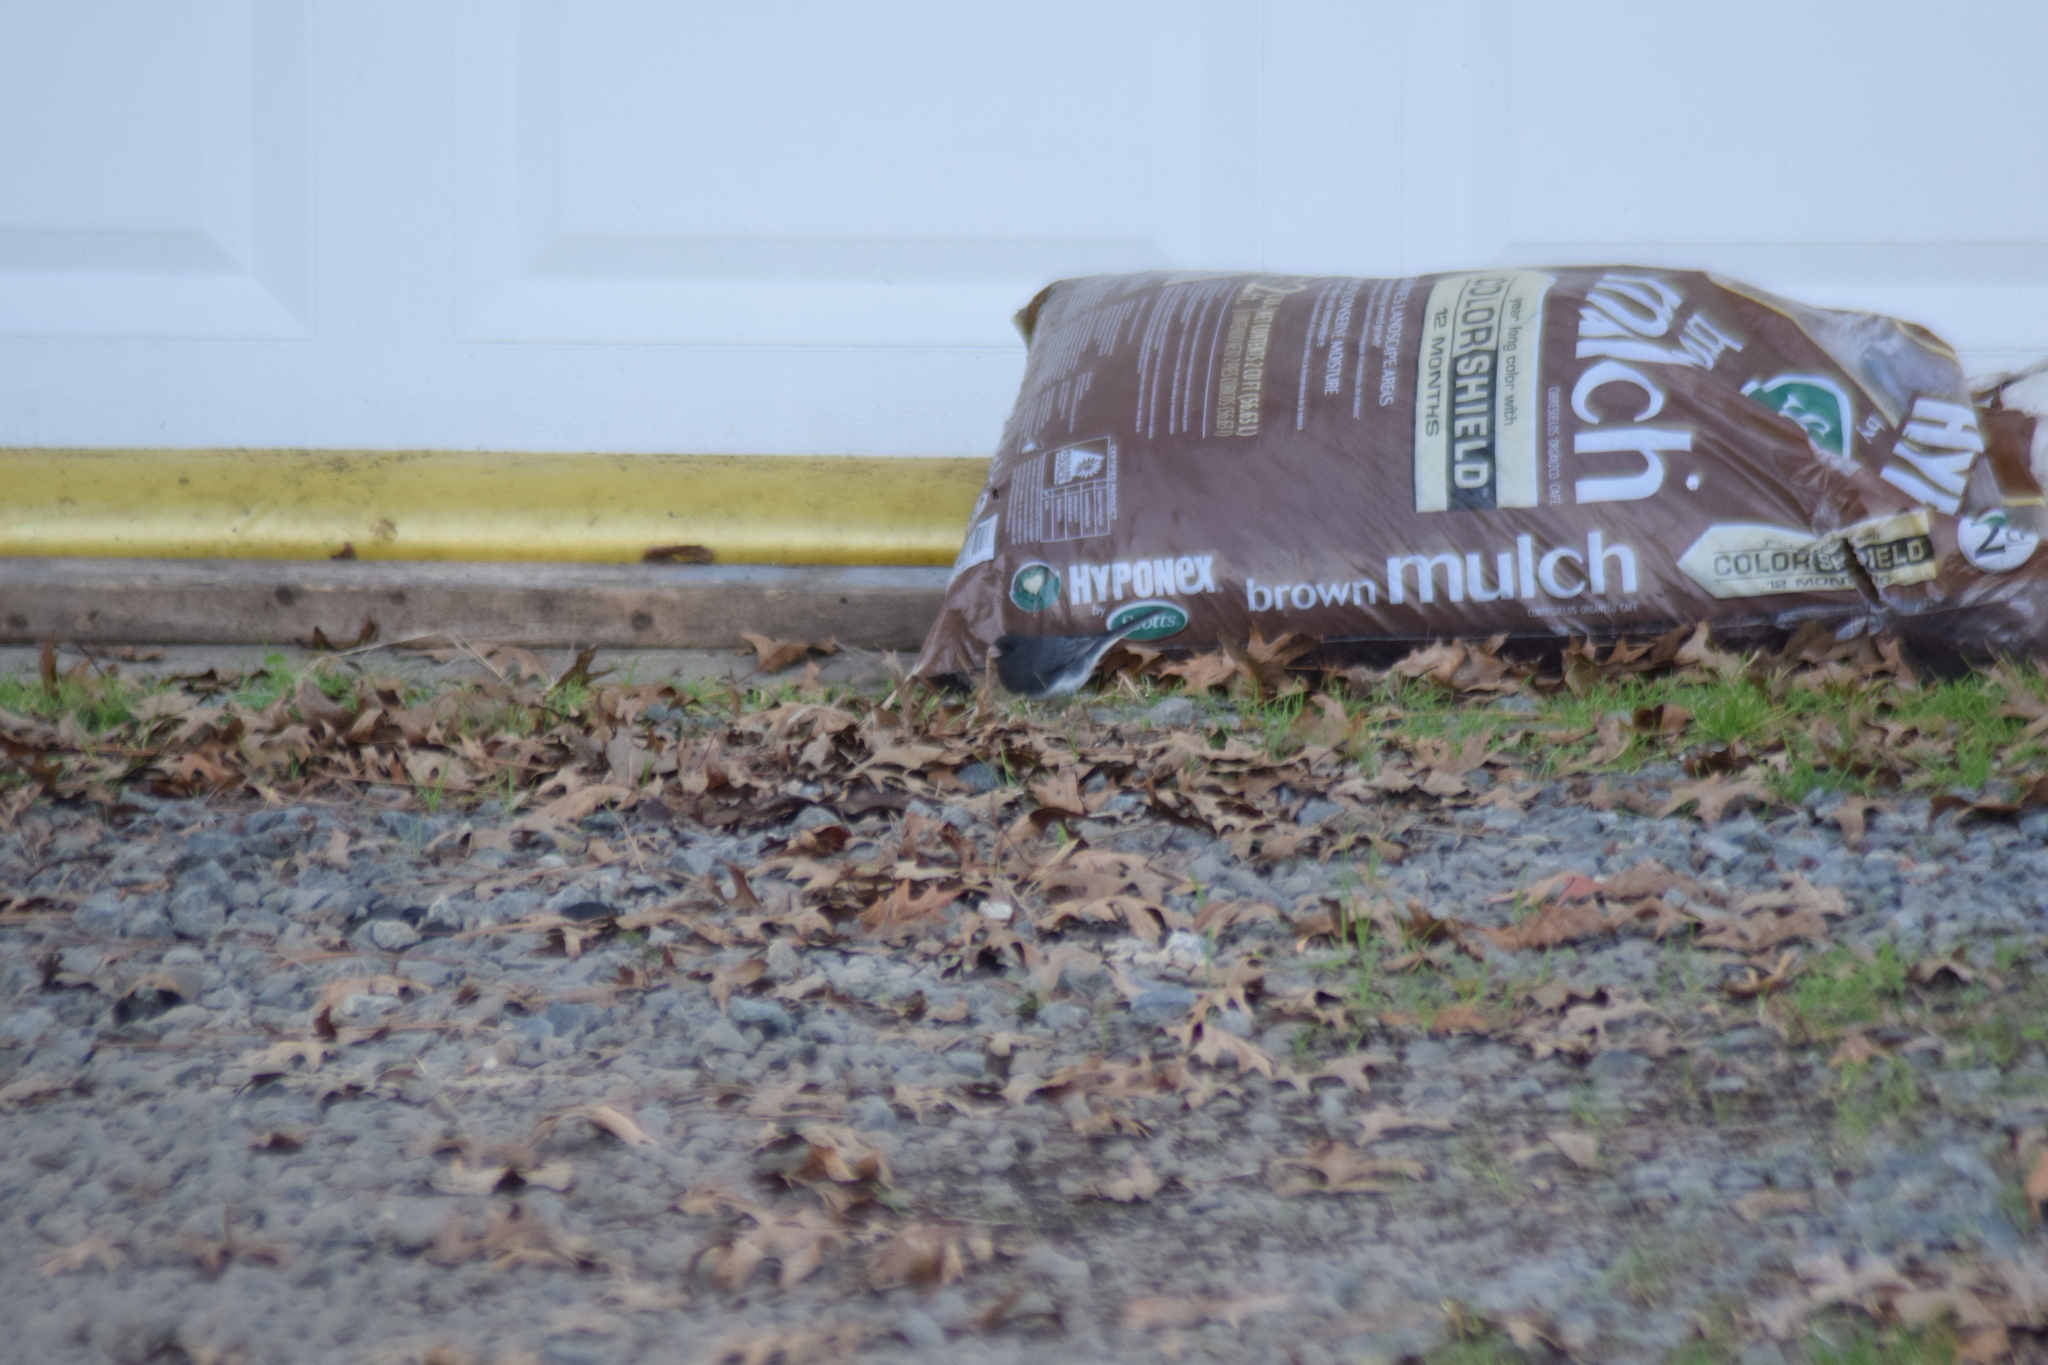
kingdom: Animalia
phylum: Chordata
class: Aves
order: Passeriformes
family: Passerellidae
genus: Junco
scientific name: Junco hyemalis
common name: Dark-eyed junco
